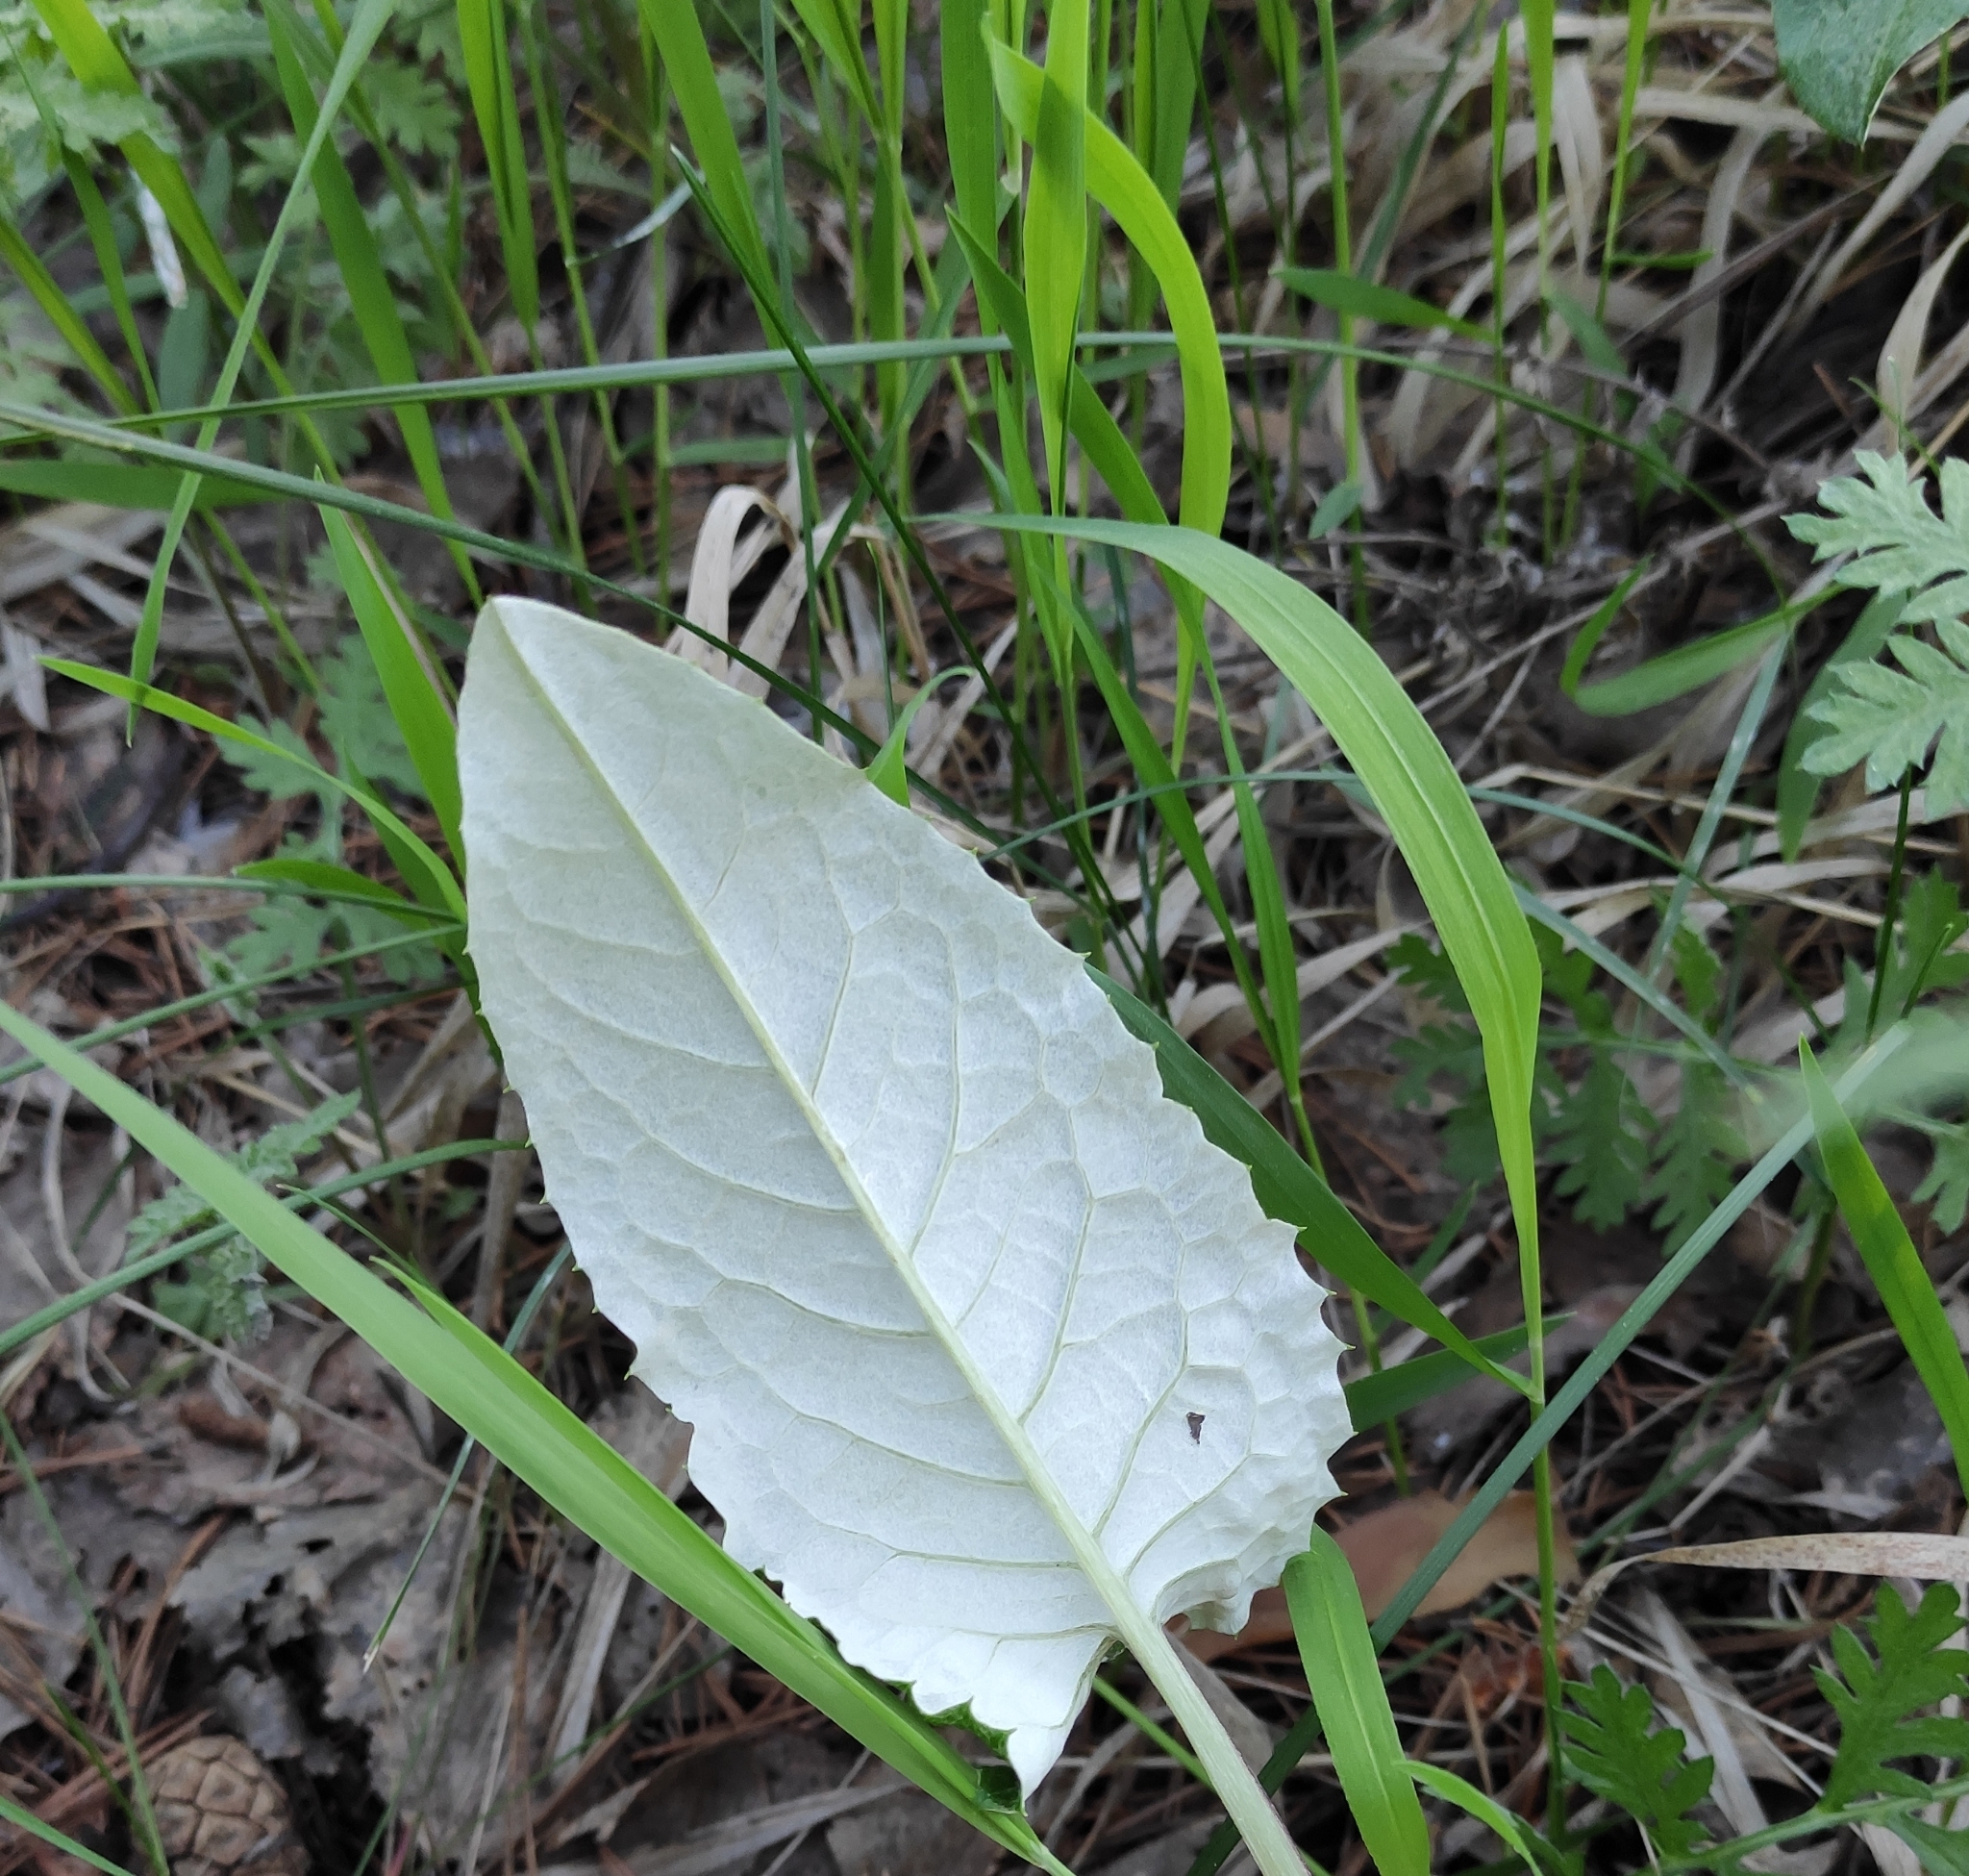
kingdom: Plantae
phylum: Tracheophyta
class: Magnoliopsida
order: Asterales
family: Asteraceae
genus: Saussurea
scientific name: Saussurea controversa
